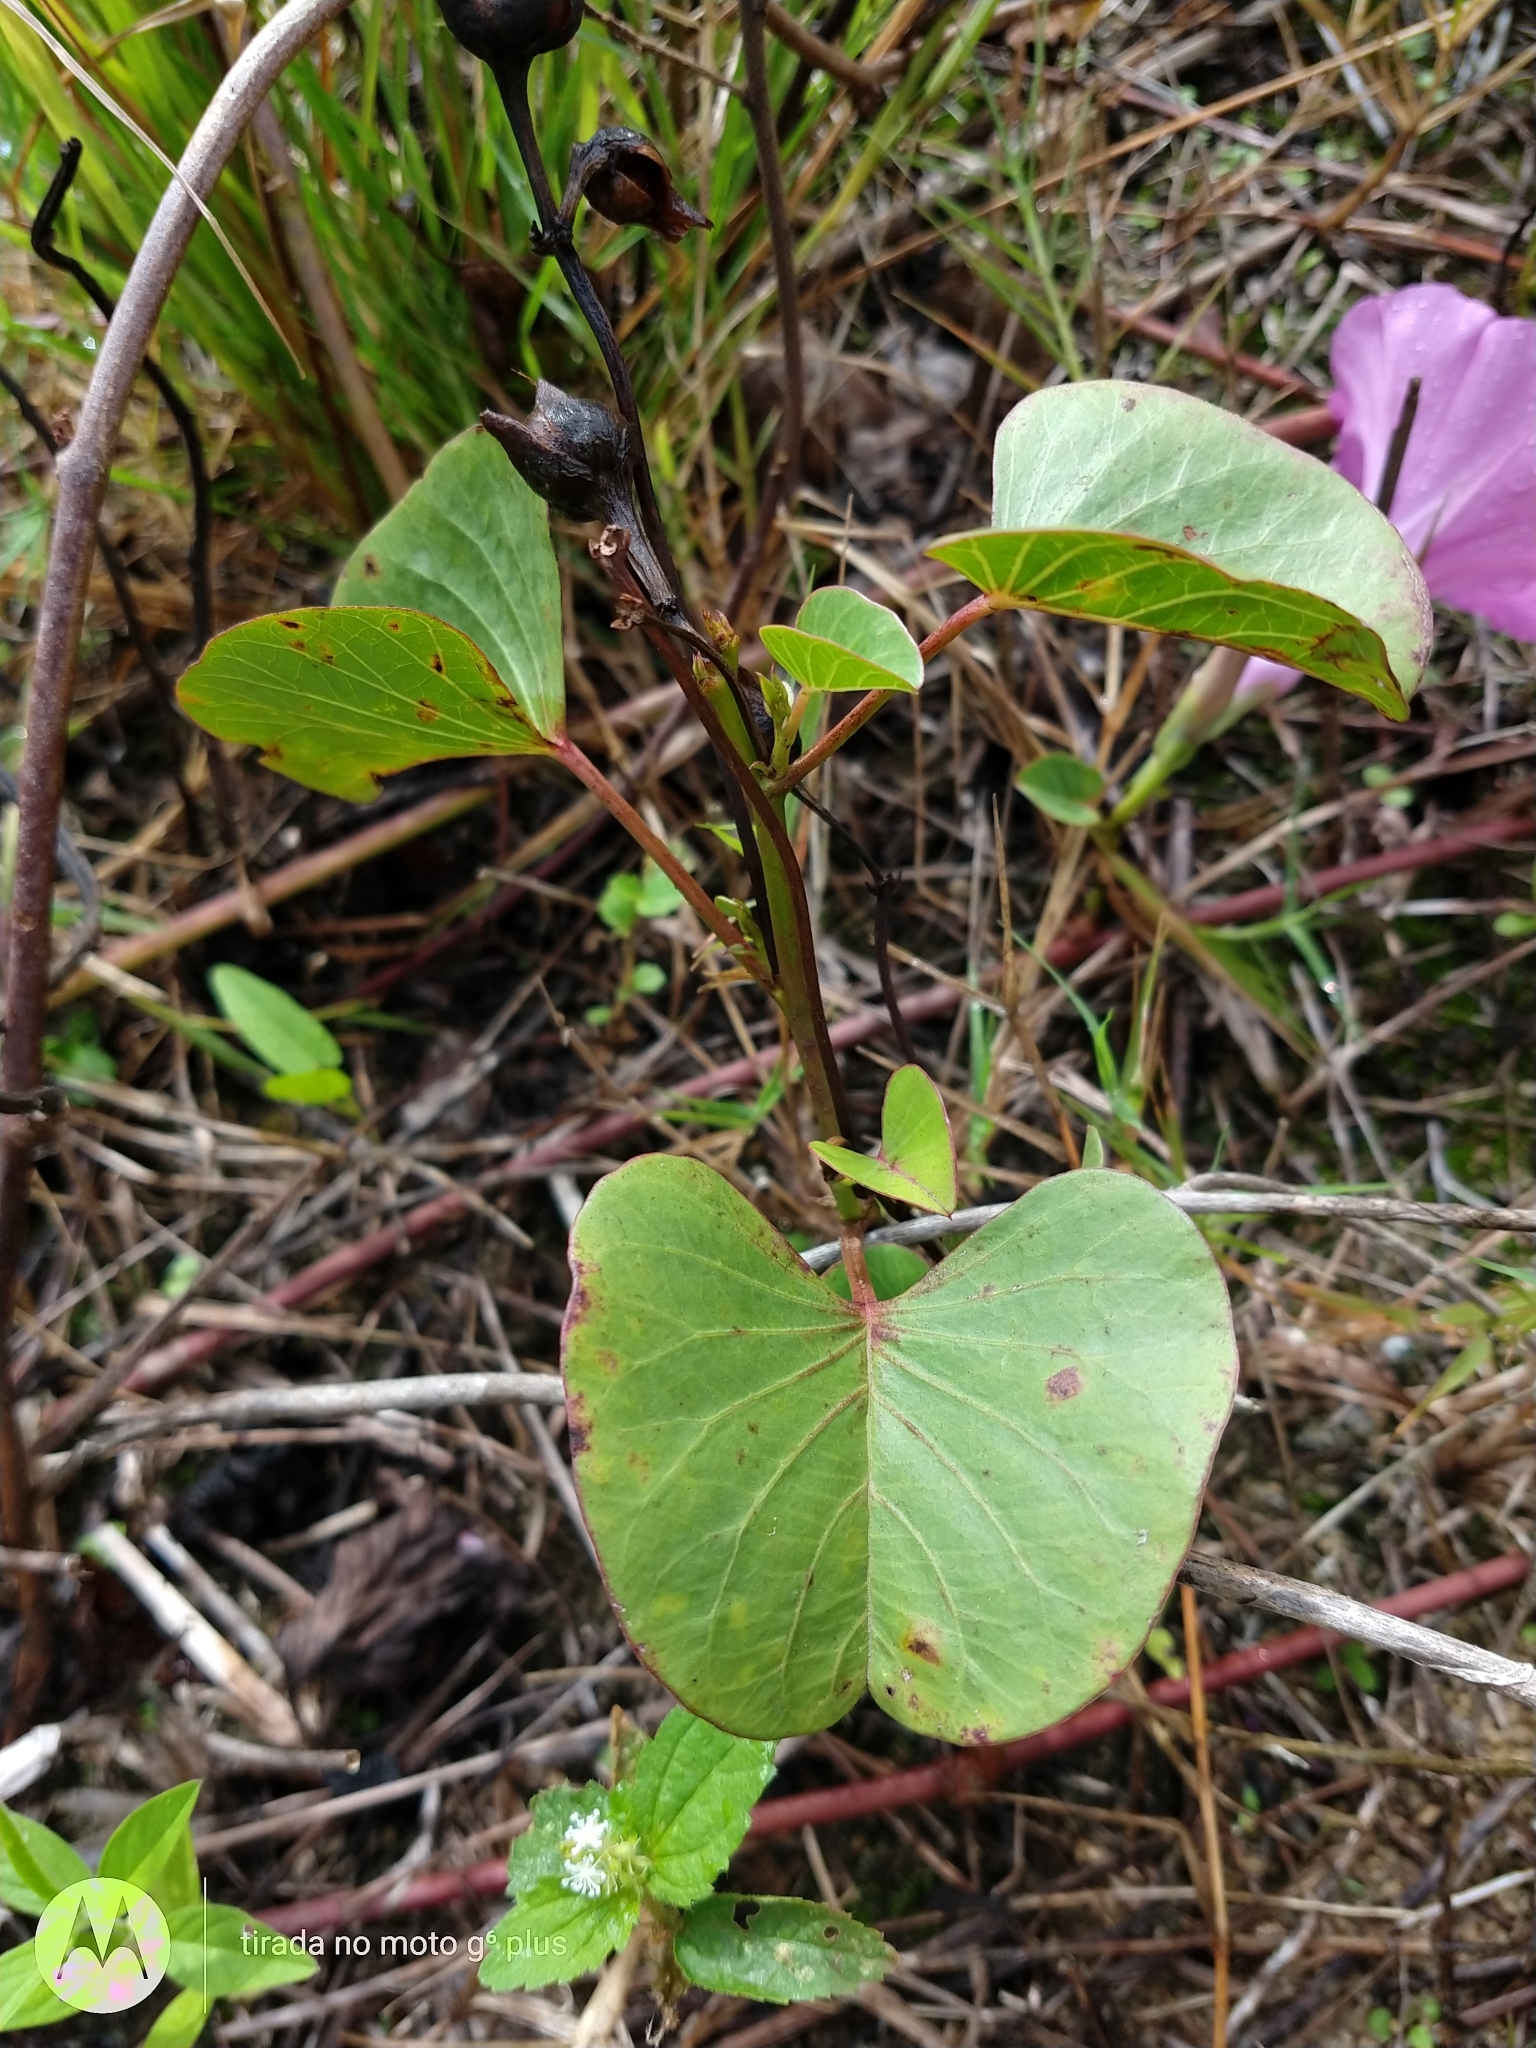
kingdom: Plantae
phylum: Tracheophyta
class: Magnoliopsida
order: Solanales
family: Convolvulaceae
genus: Ipomoea
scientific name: Ipomoea asarifolia
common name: Ginger-leaf morning-glory
